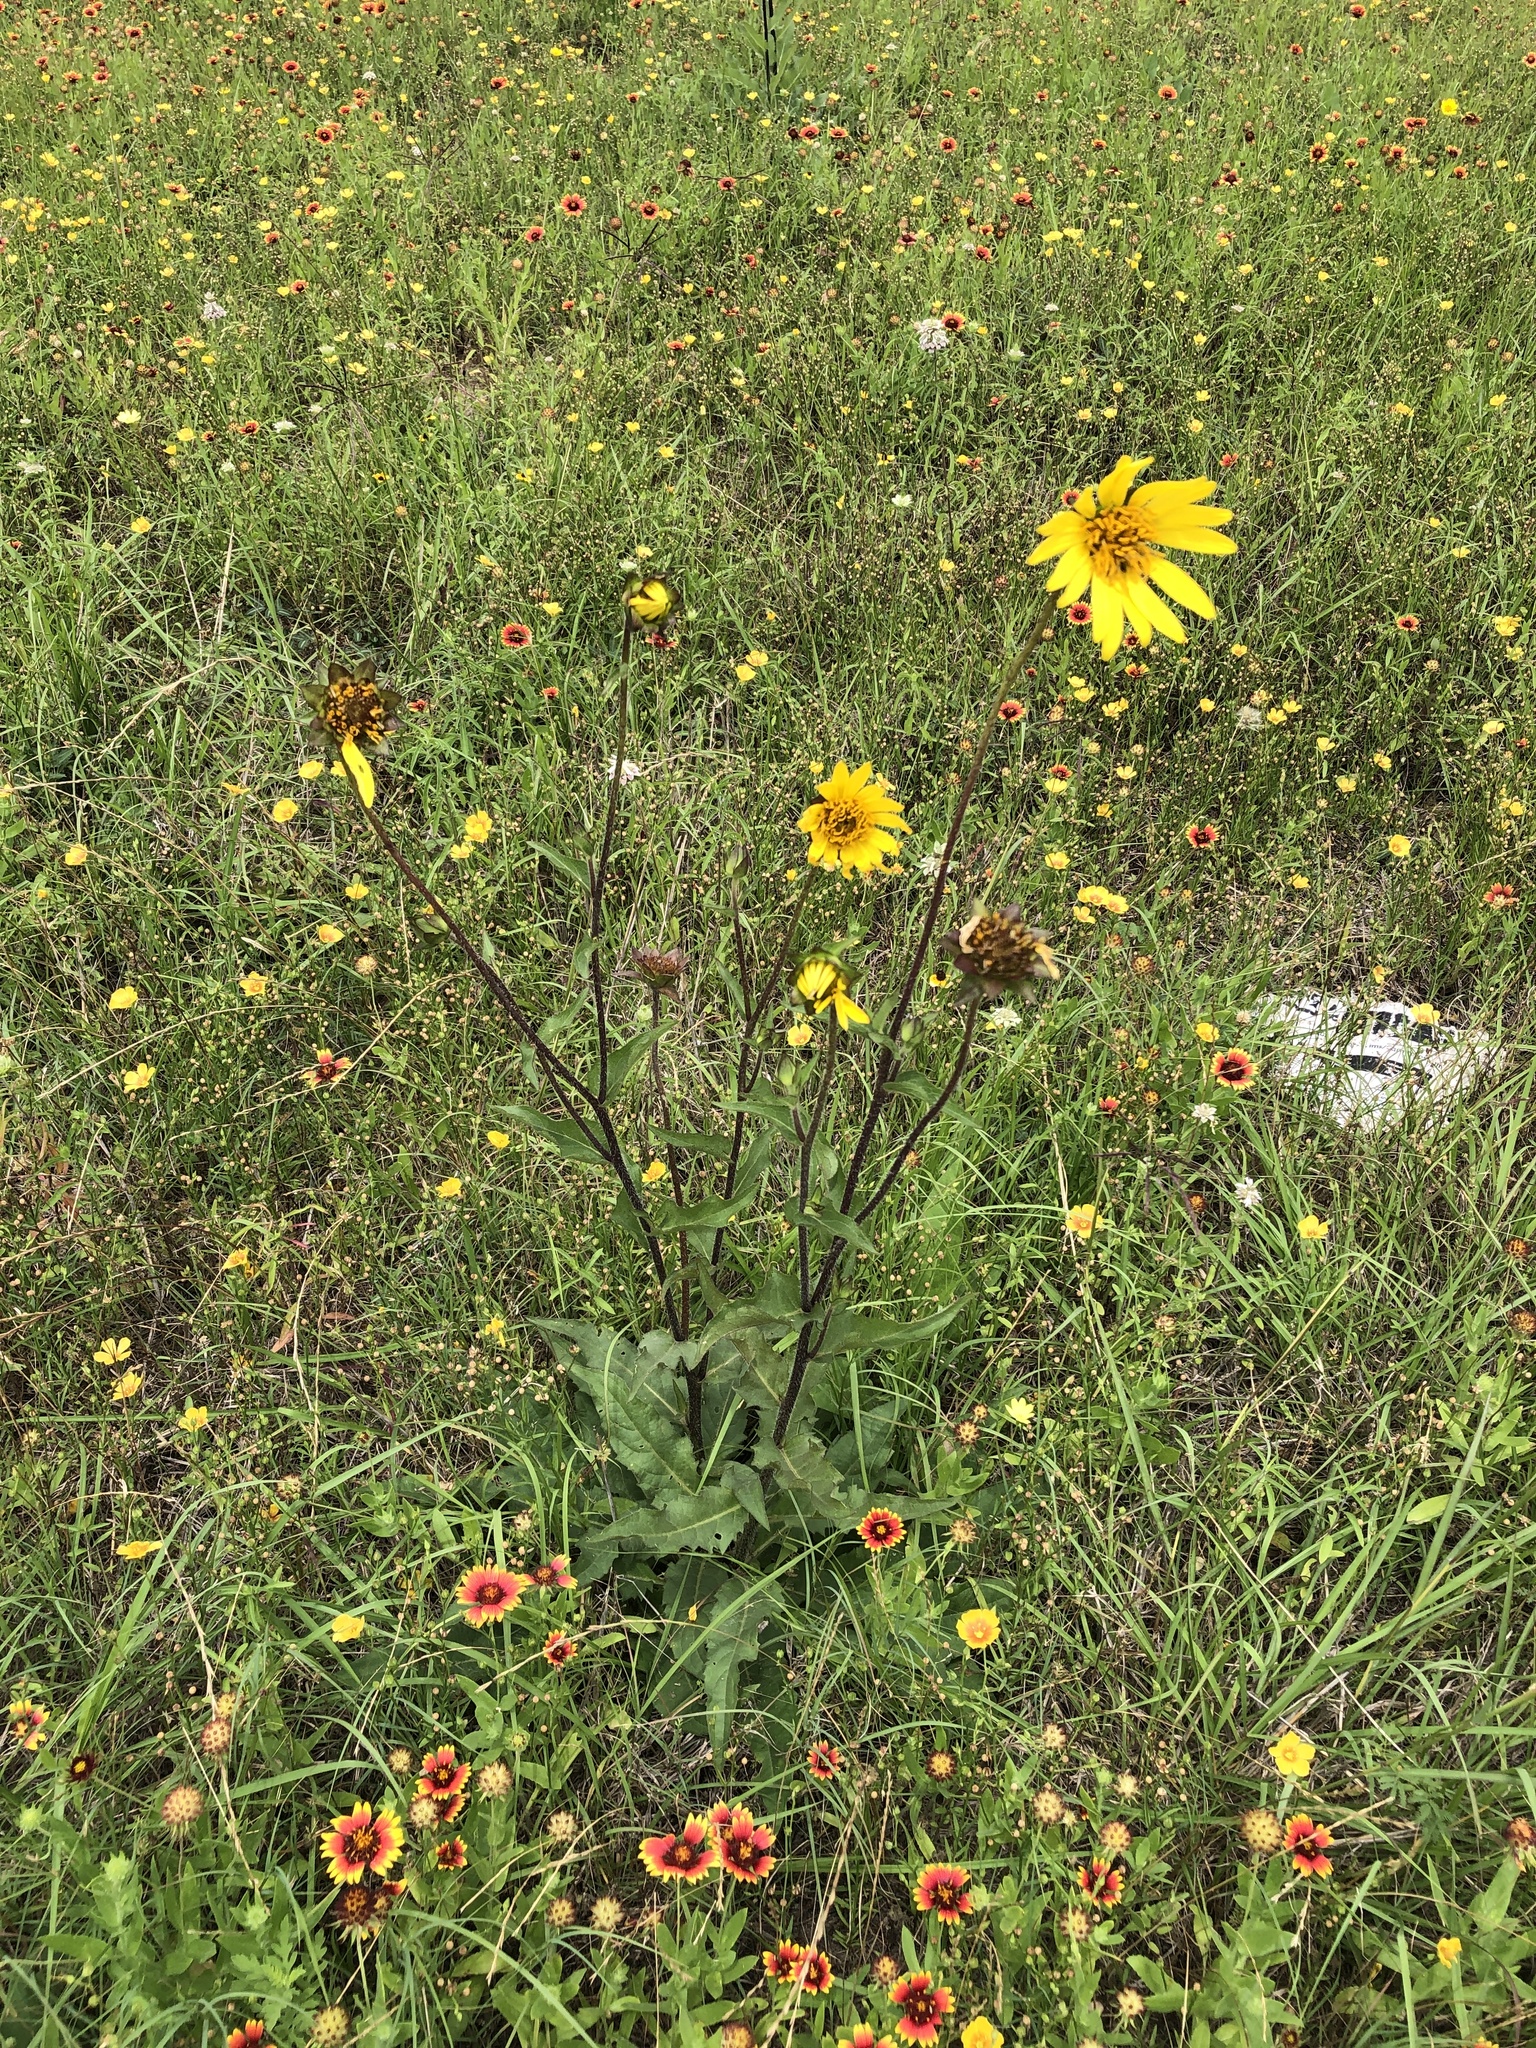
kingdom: Plantae
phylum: Tracheophyta
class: Magnoliopsida
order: Asterales
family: Asteraceae
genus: Silphium
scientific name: Silphium radula
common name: Roughleaf rosinweed
